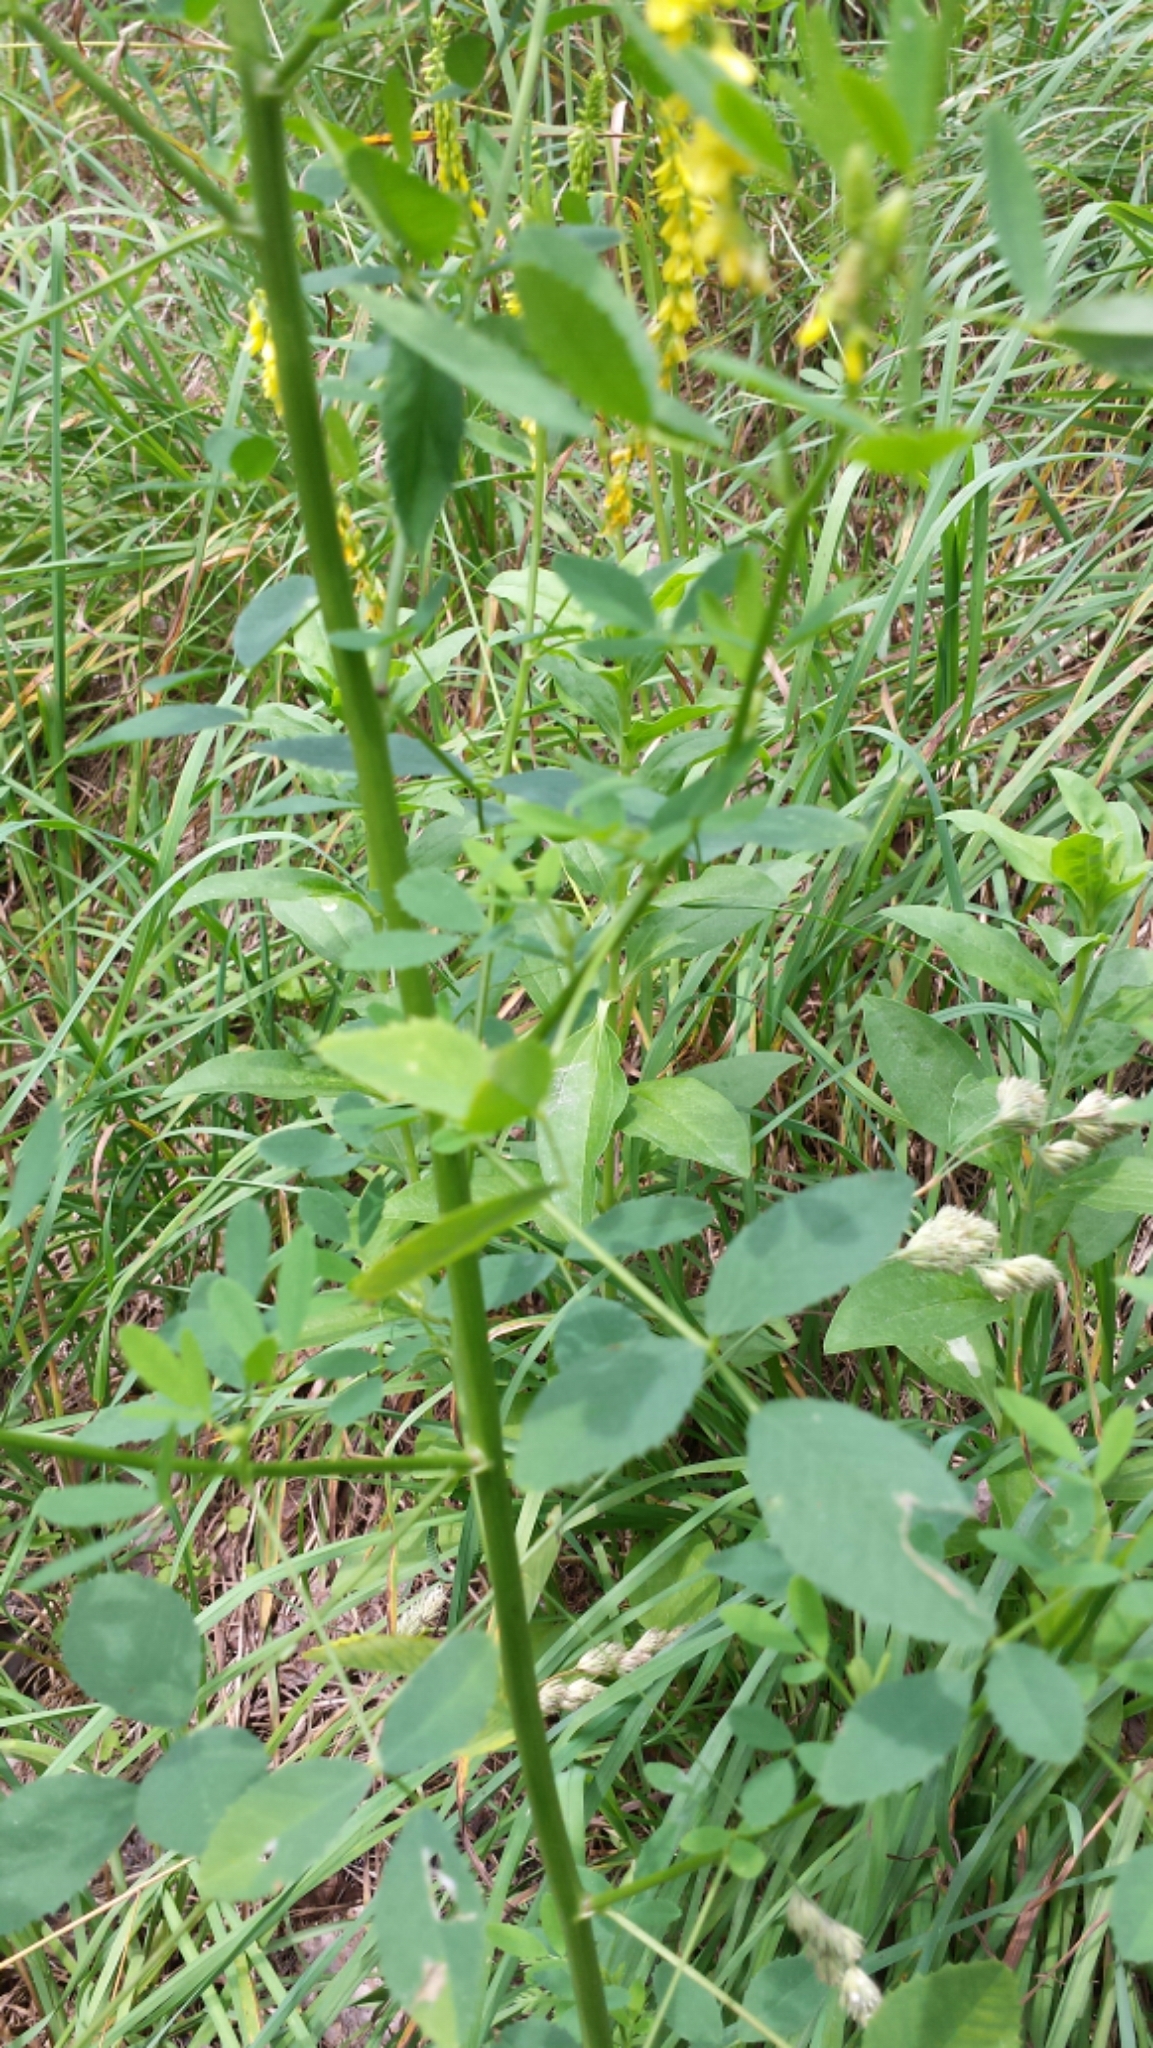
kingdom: Plantae
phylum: Tracheophyta
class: Magnoliopsida
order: Fabales
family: Fabaceae
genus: Melilotus
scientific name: Melilotus officinalis
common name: Sweetclover
